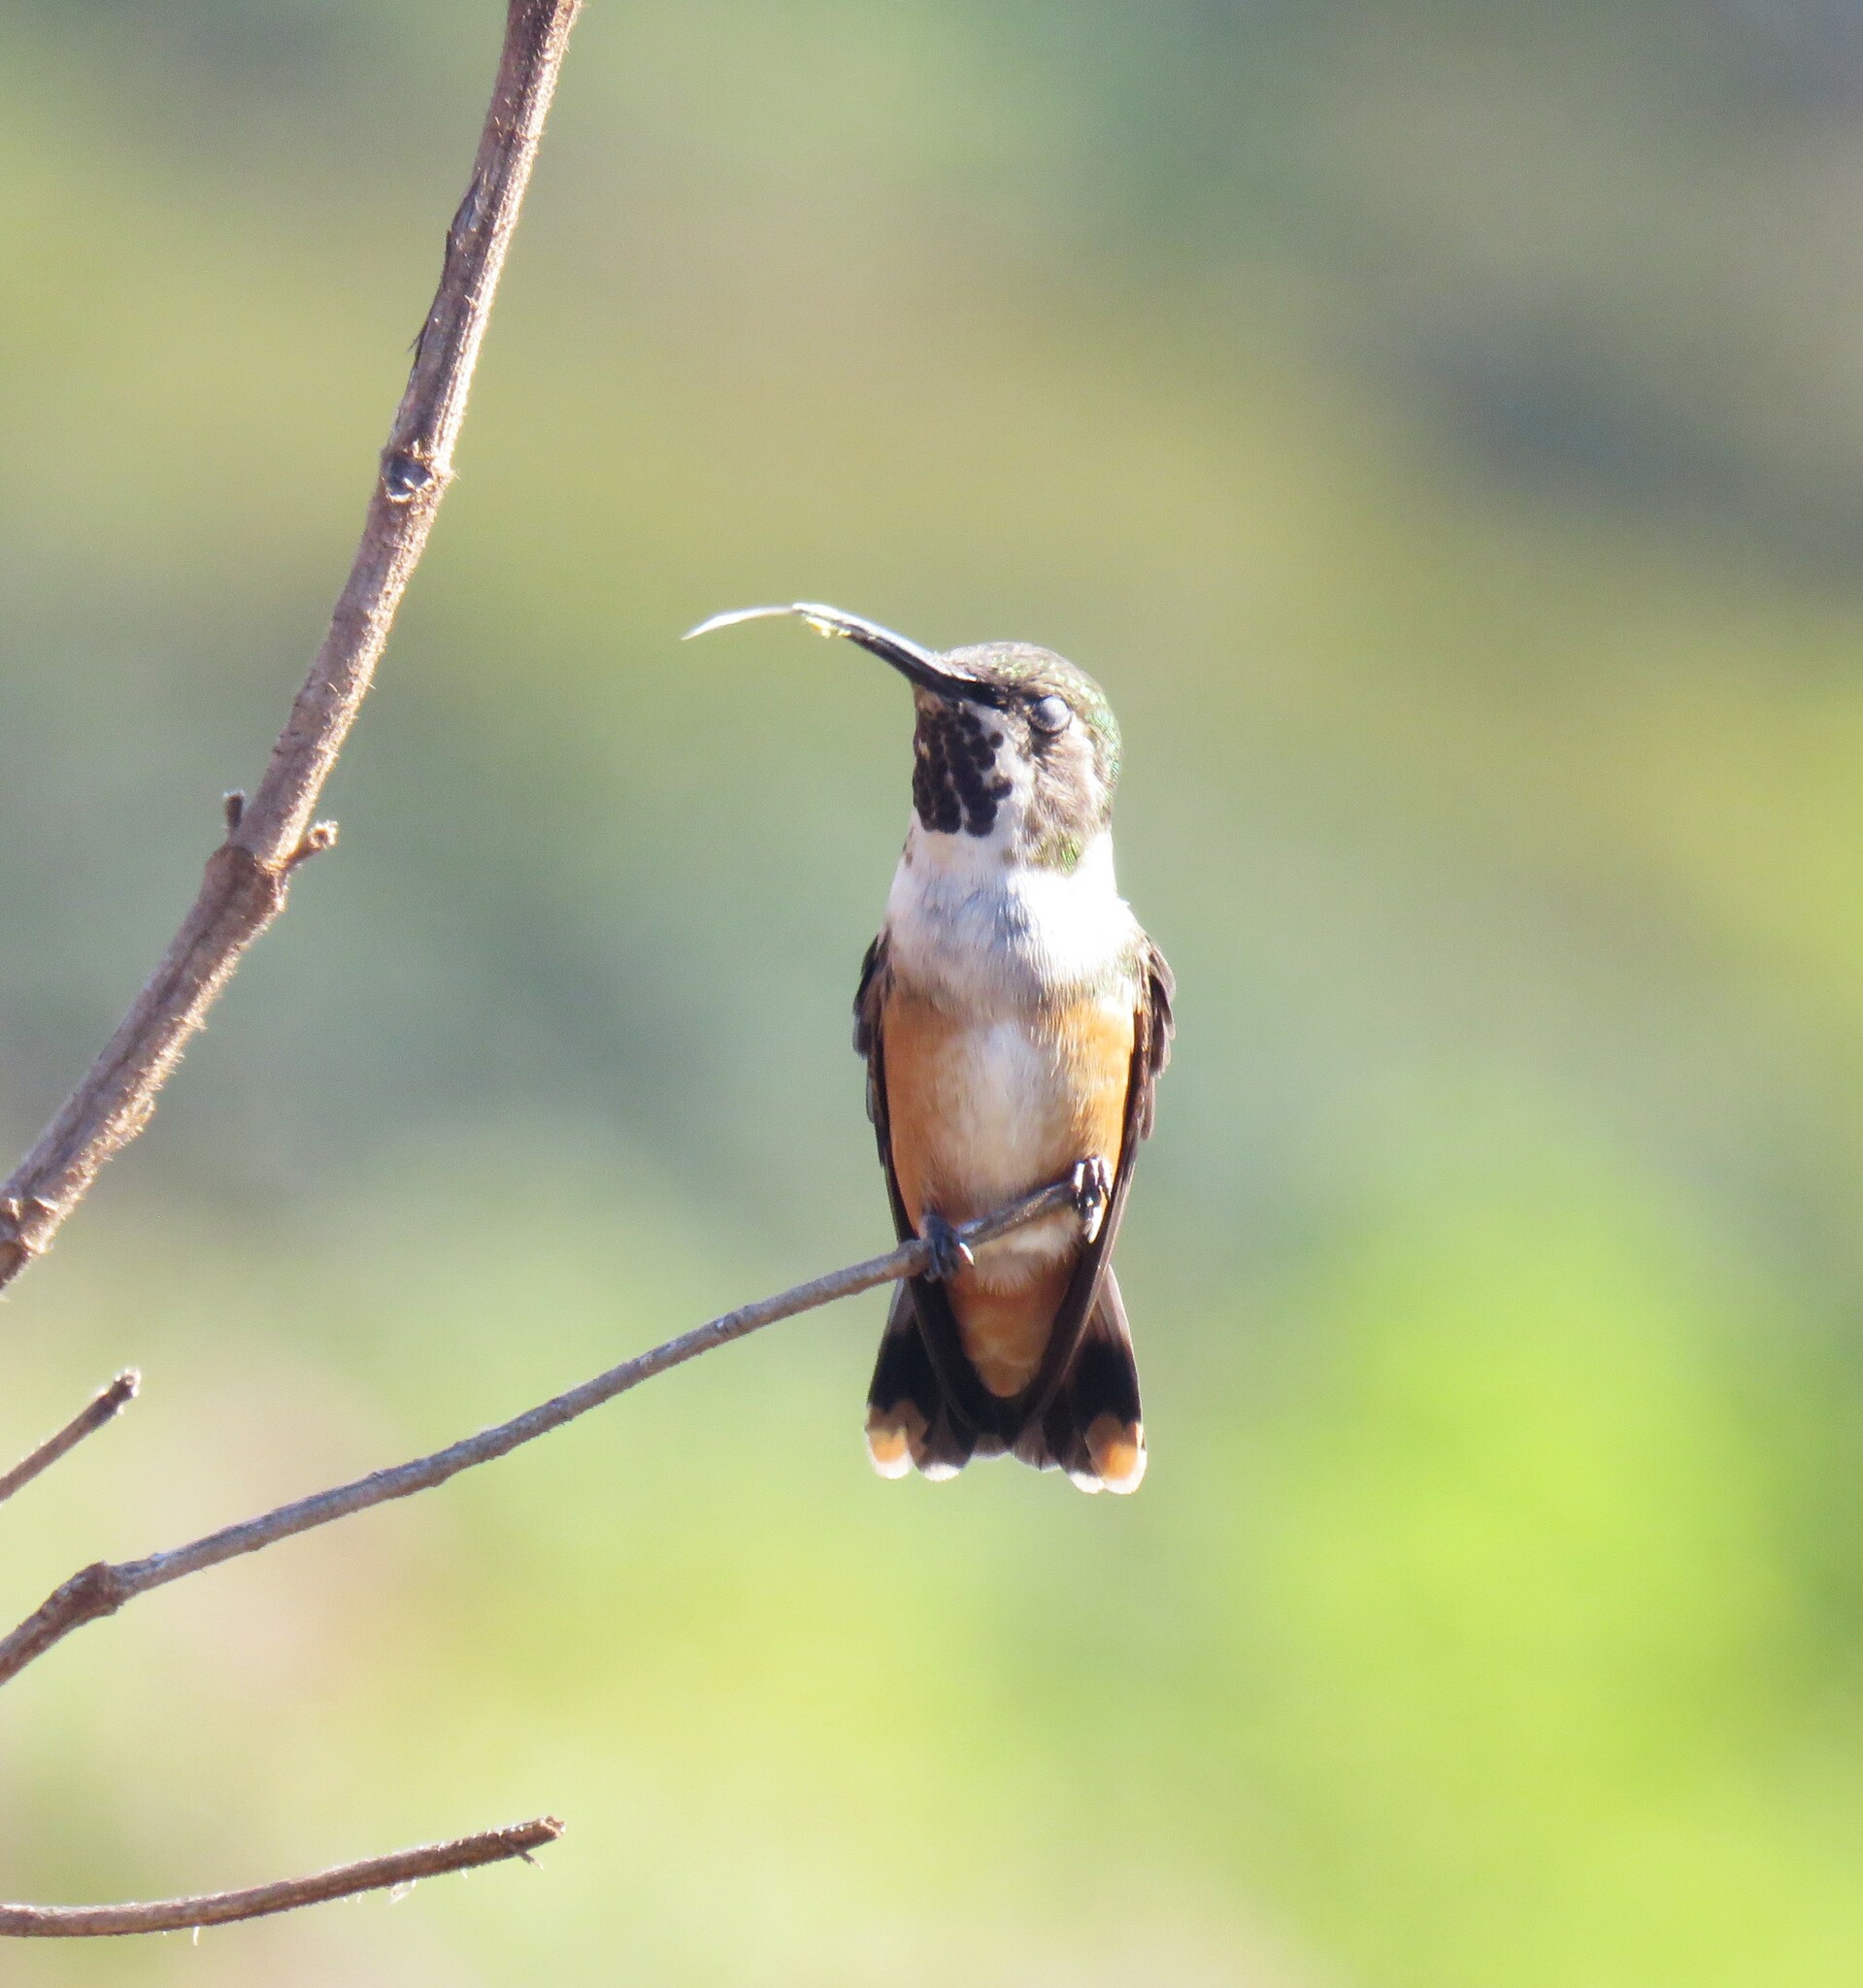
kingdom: Animalia
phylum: Chordata
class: Aves
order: Apodiformes
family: Trochilidae
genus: Calliphlox
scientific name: Calliphlox amethystina
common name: Amethyst woodstar
